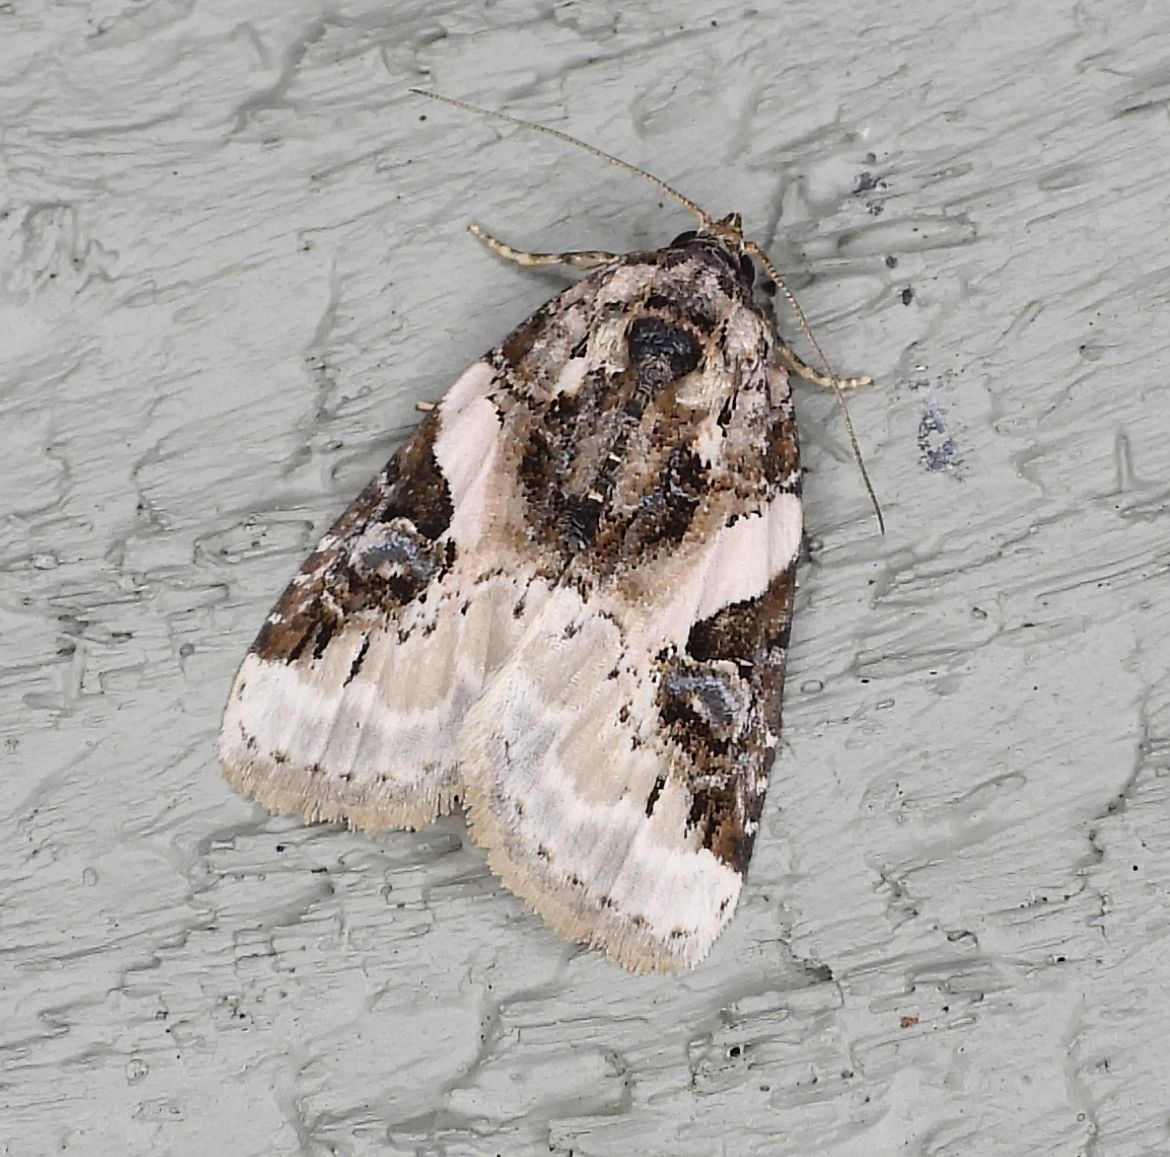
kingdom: Animalia
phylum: Arthropoda
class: Insecta
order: Lepidoptera
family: Noctuidae
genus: Pseudeustrotia
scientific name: Pseudeustrotia carneola
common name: Pink-barred lithacodia moth
